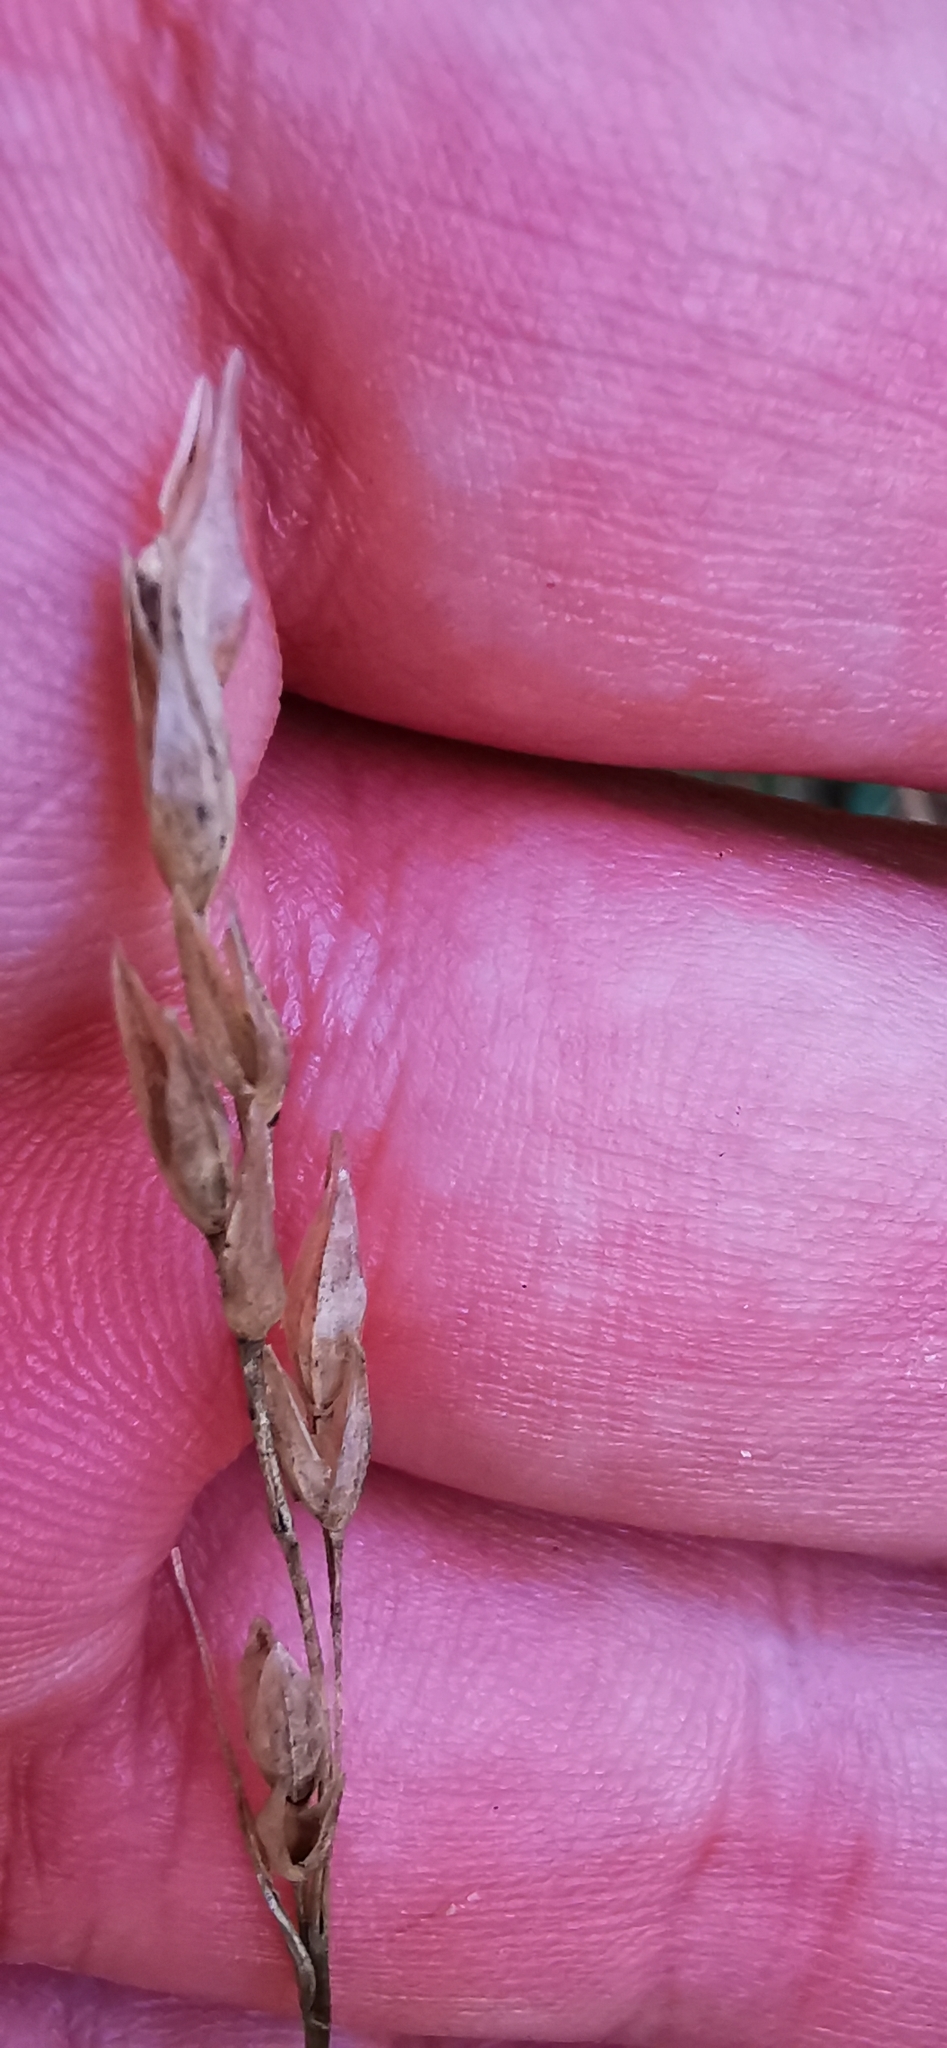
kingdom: Plantae
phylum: Tracheophyta
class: Liliopsida
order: Poales
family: Poaceae
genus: Danthonia
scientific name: Danthonia decumbens
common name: Common heathgrass
